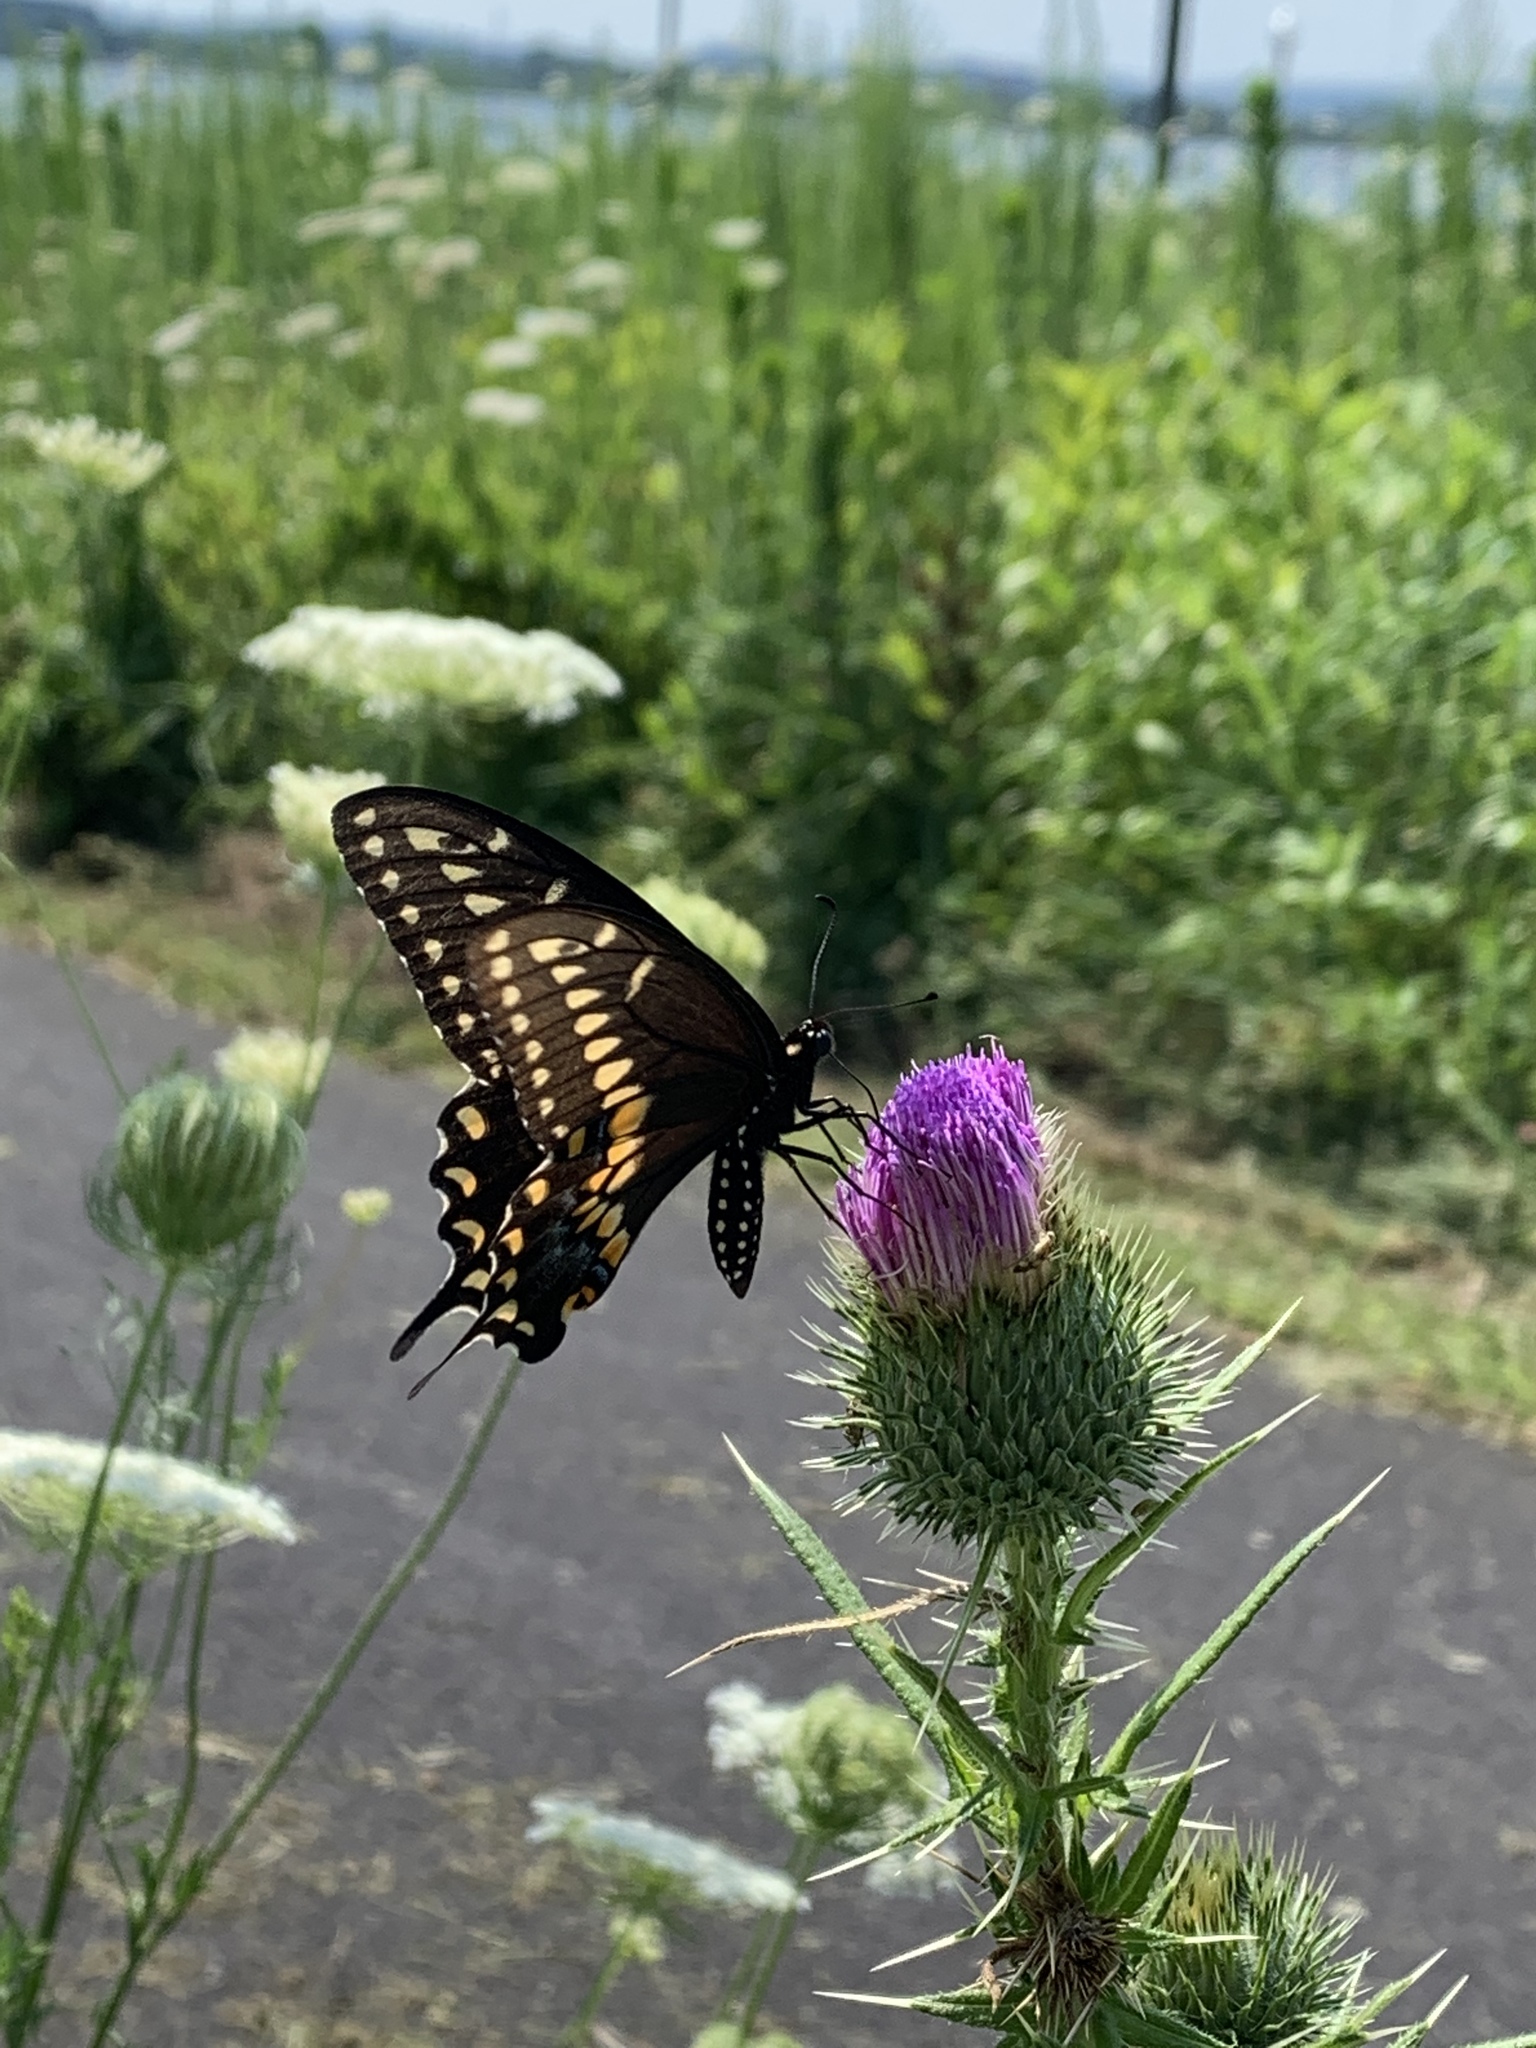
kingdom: Animalia
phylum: Arthropoda
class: Insecta
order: Lepidoptera
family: Papilionidae
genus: Papilio
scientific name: Papilio polyxenes
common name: Black swallowtail
